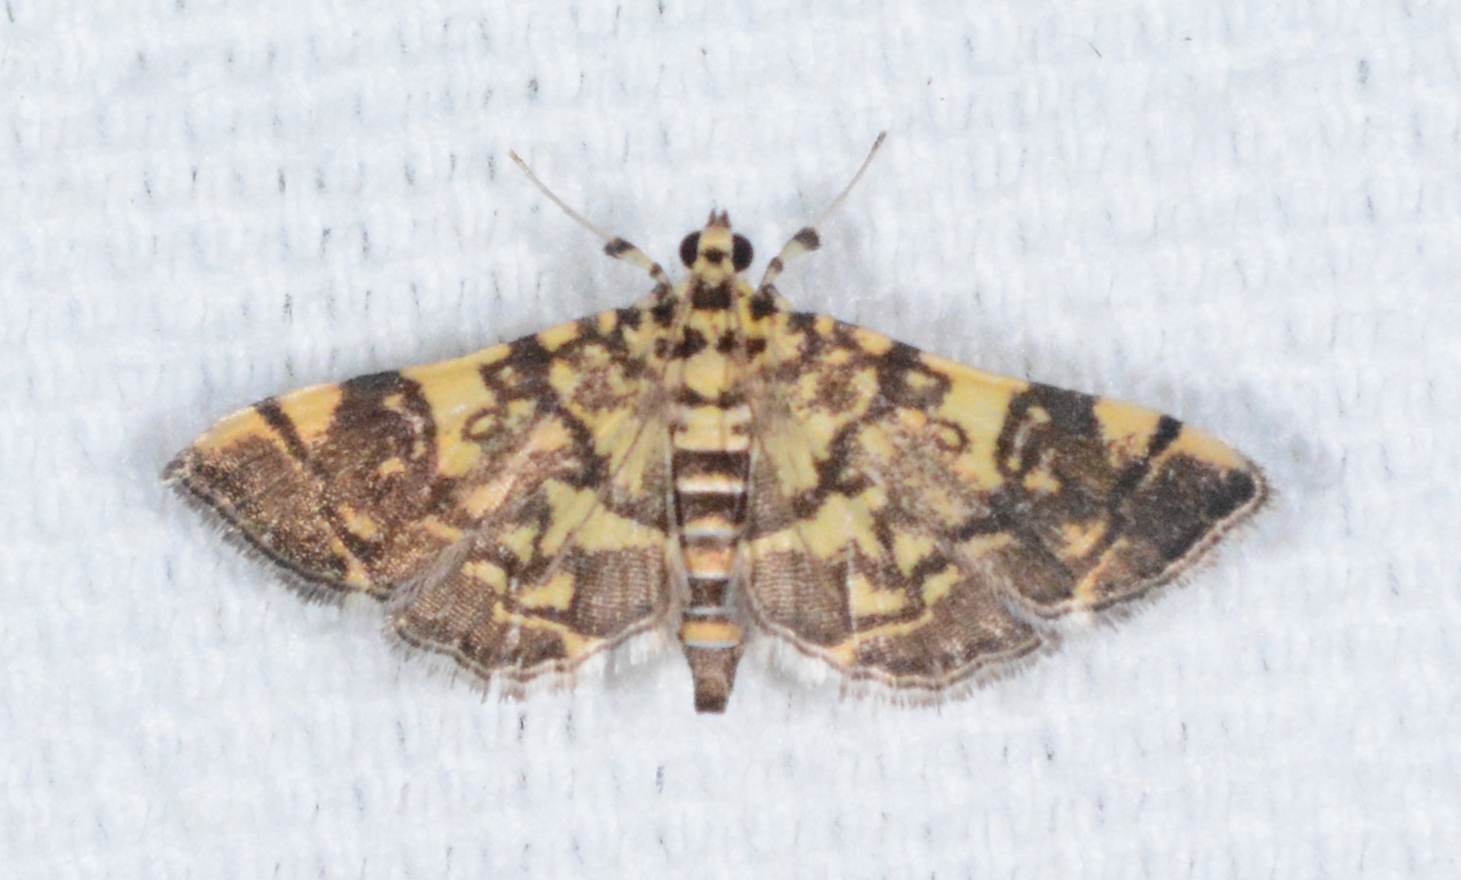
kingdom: Animalia
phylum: Arthropoda
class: Insecta
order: Lepidoptera
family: Crambidae
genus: Apogeshna
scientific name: Apogeshna stenialis
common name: Checkered apogeshna moth
